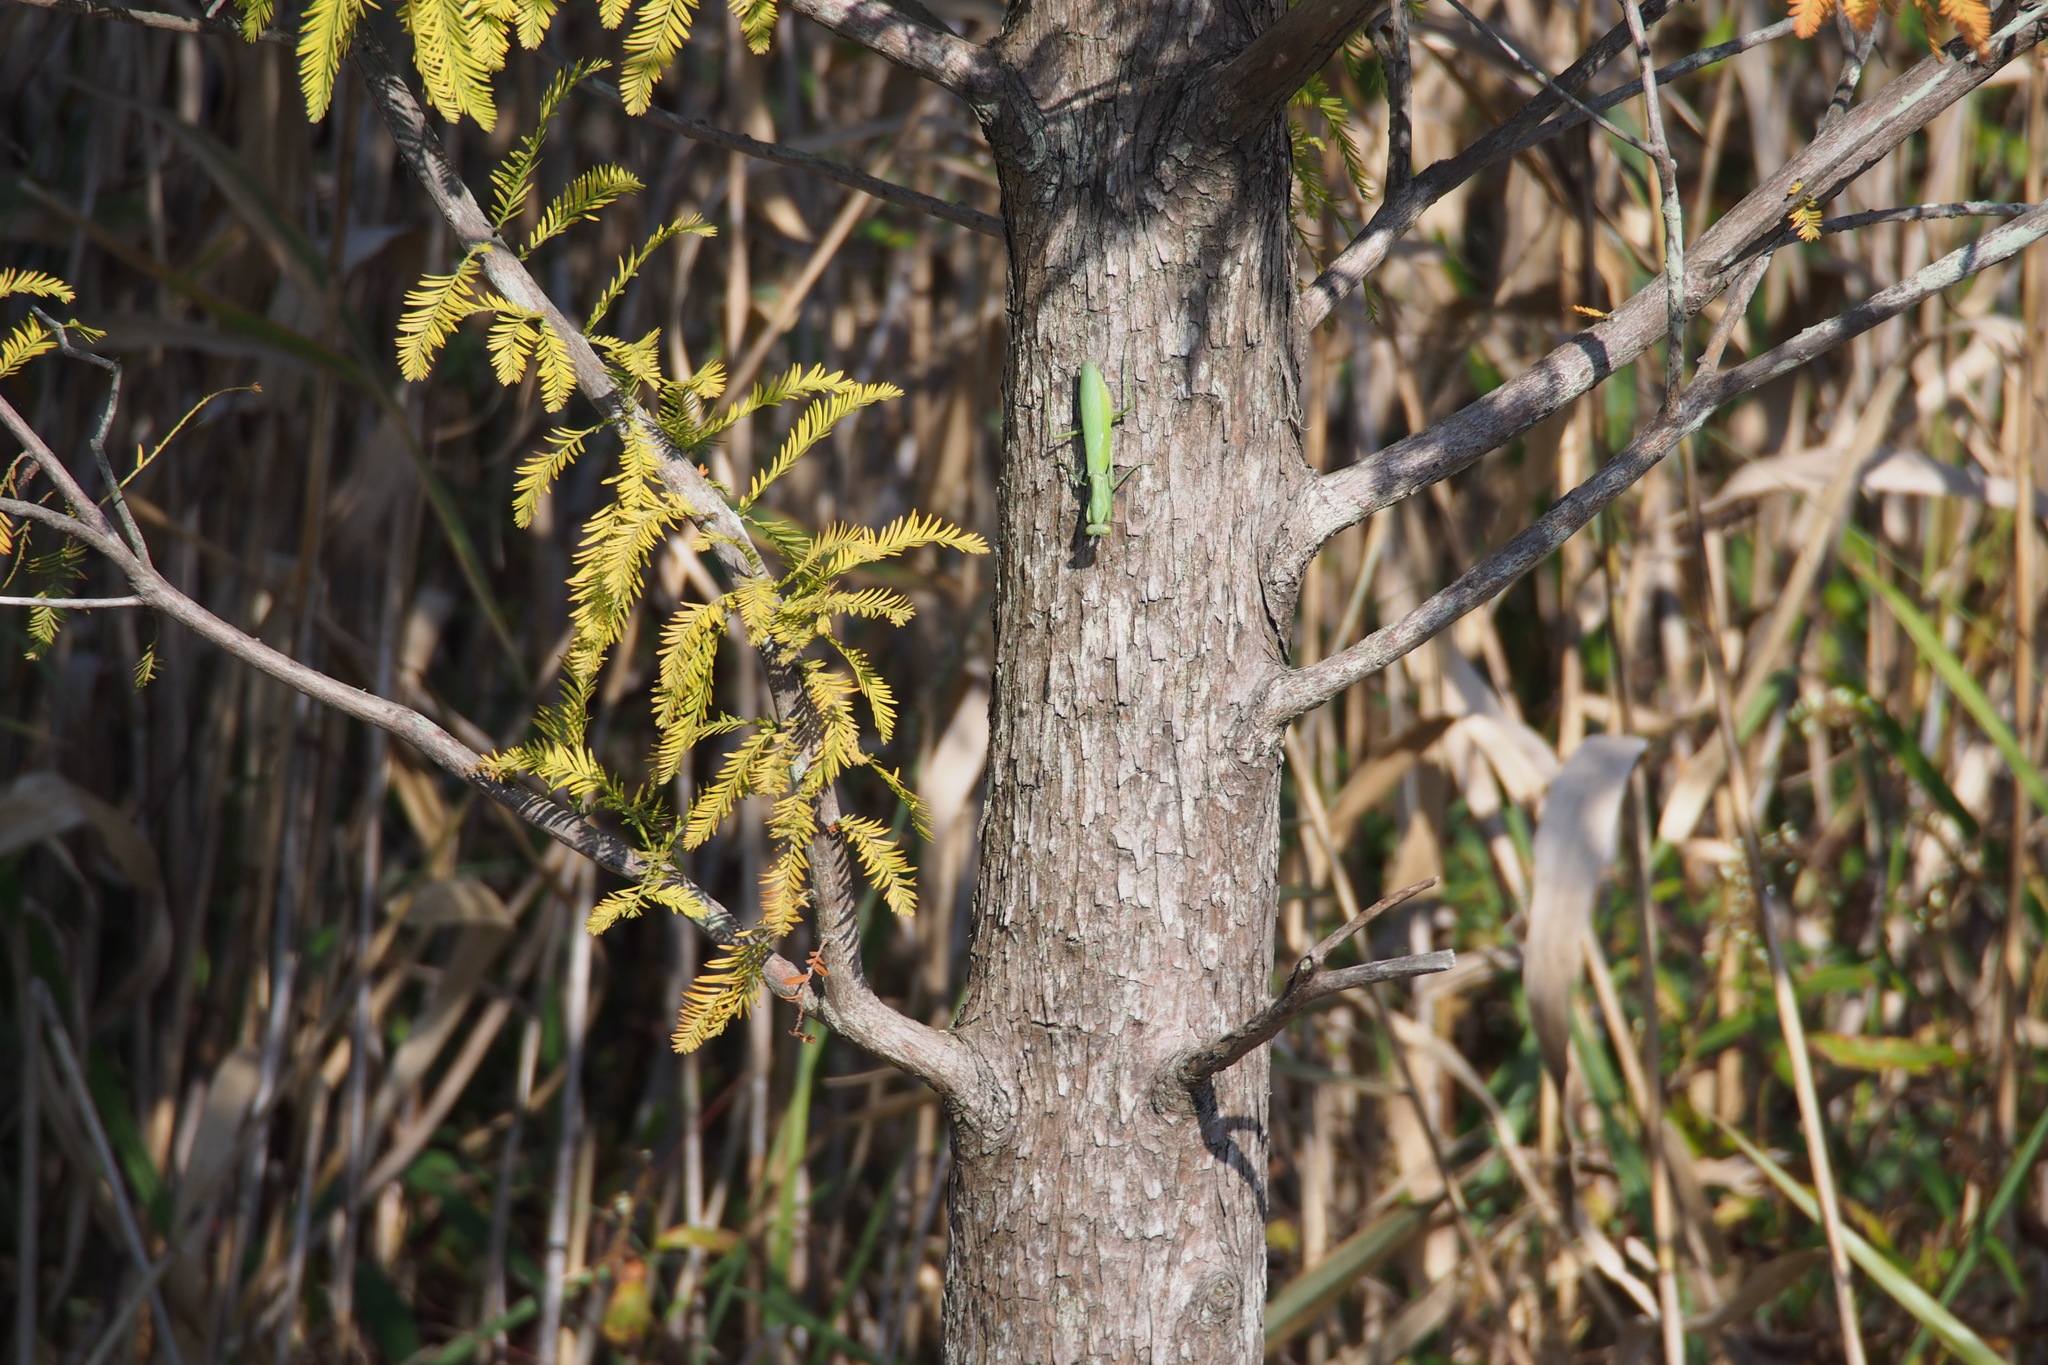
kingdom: Animalia
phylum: Arthropoda
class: Insecta
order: Mantodea
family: Mantidae
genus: Hierodula
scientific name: Hierodula patellifera
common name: Asian mantis
